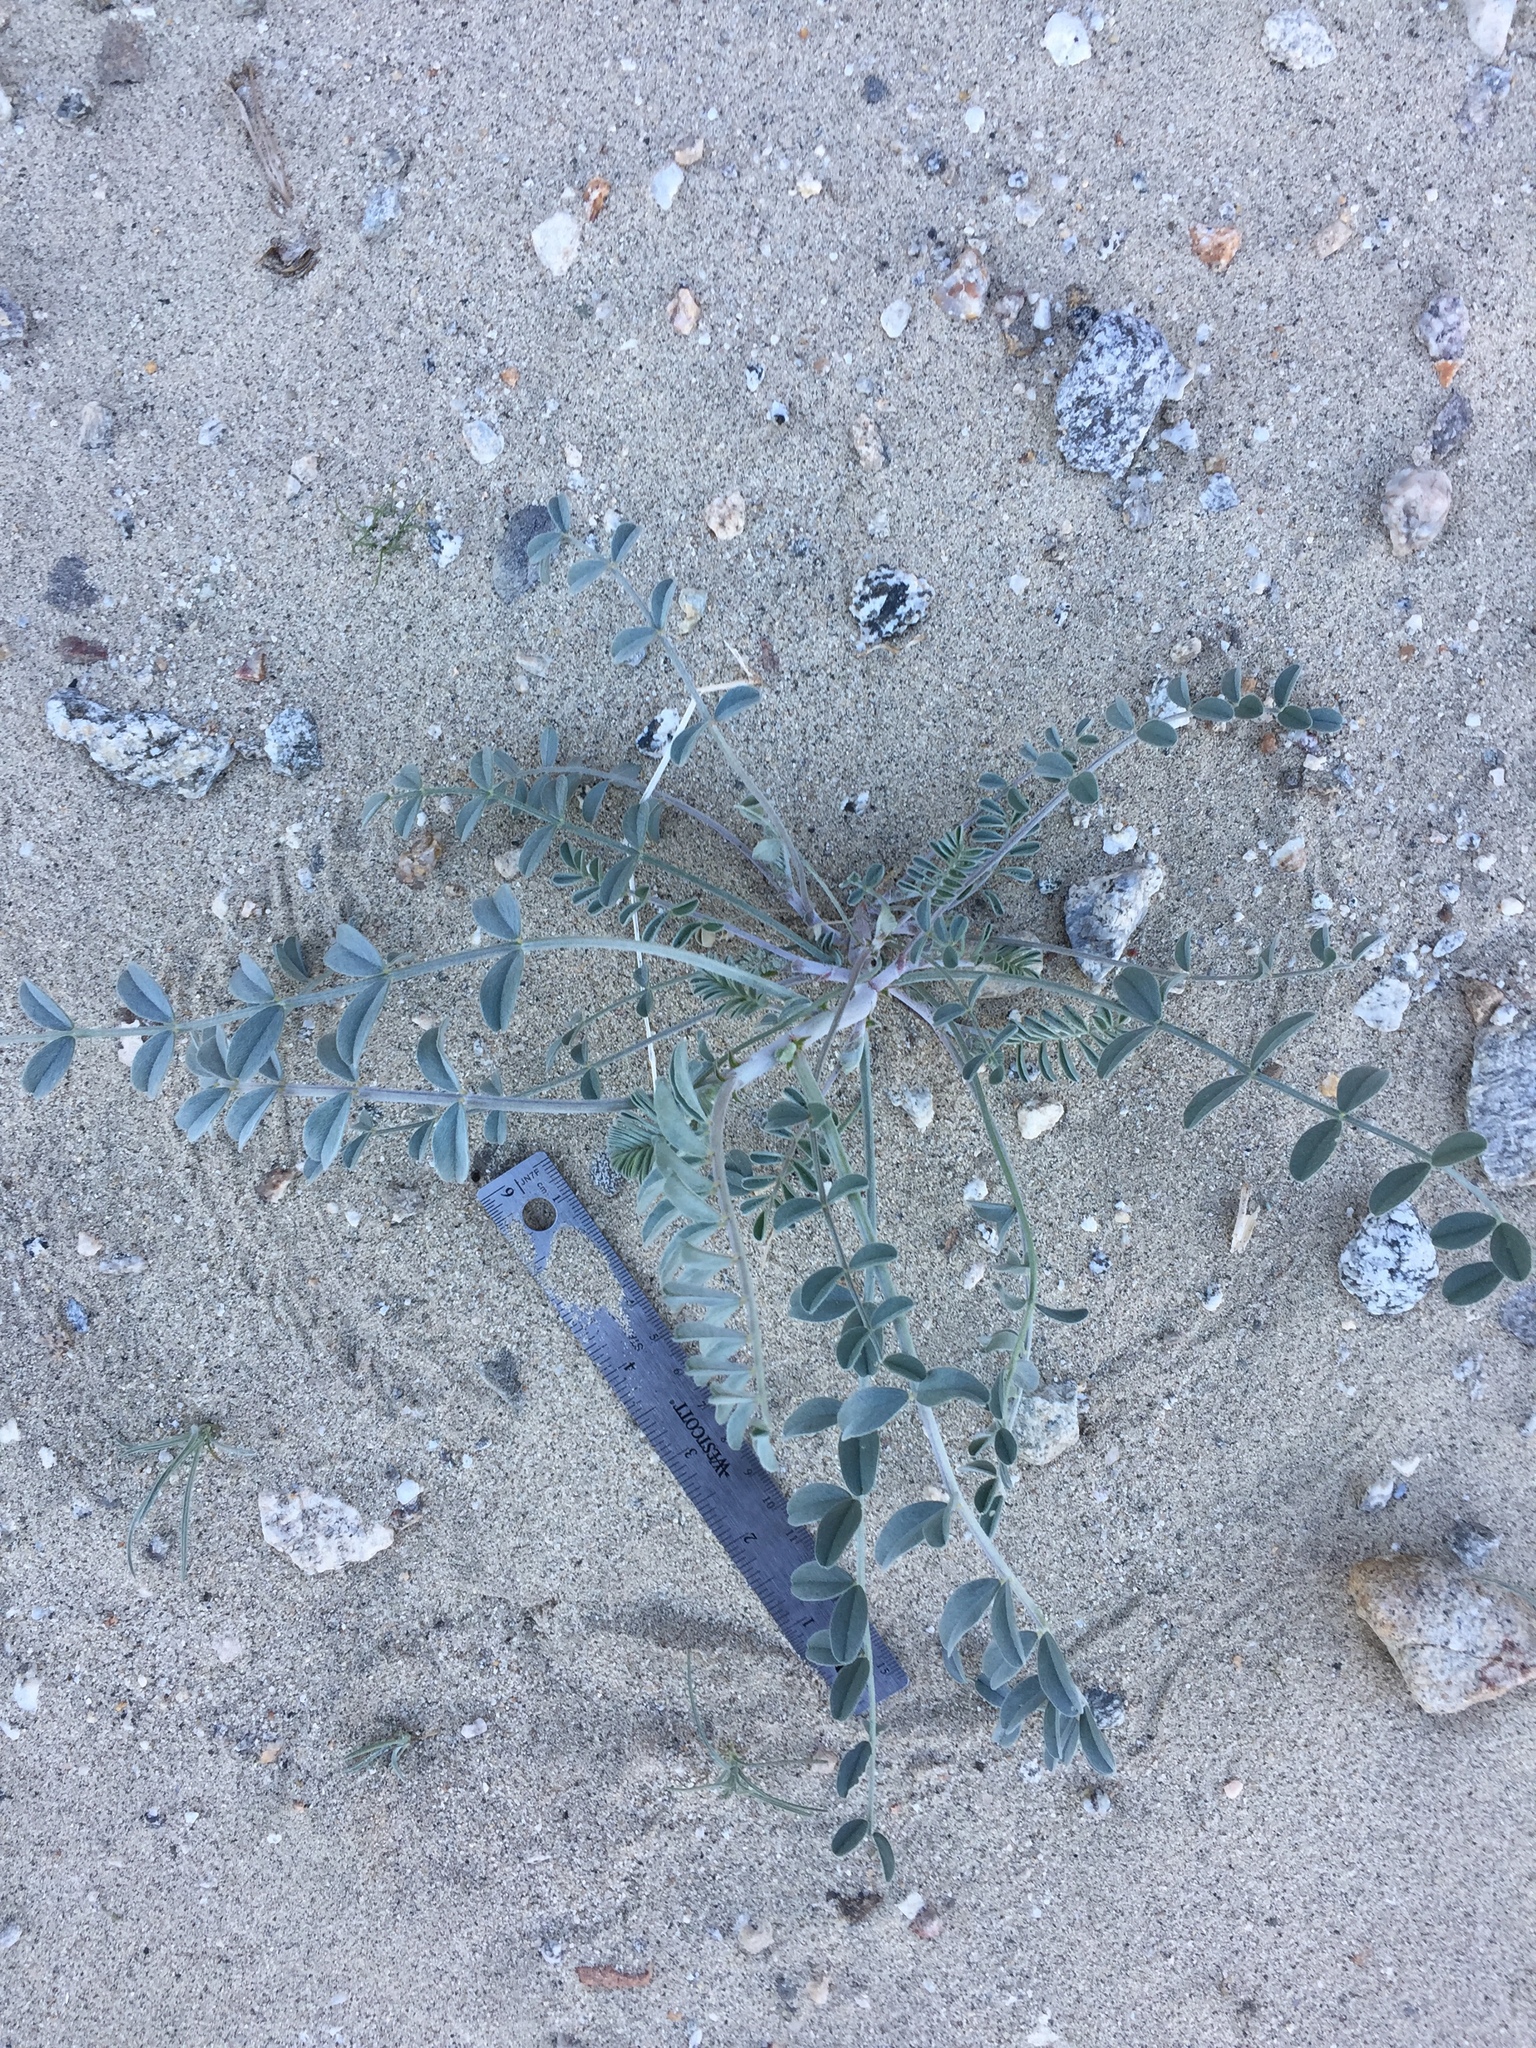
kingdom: Plantae
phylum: Tracheophyta
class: Magnoliopsida
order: Fabales
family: Fabaceae
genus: Astragalus
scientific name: Astragalus lentiginosus
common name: Freckled milkvetch
